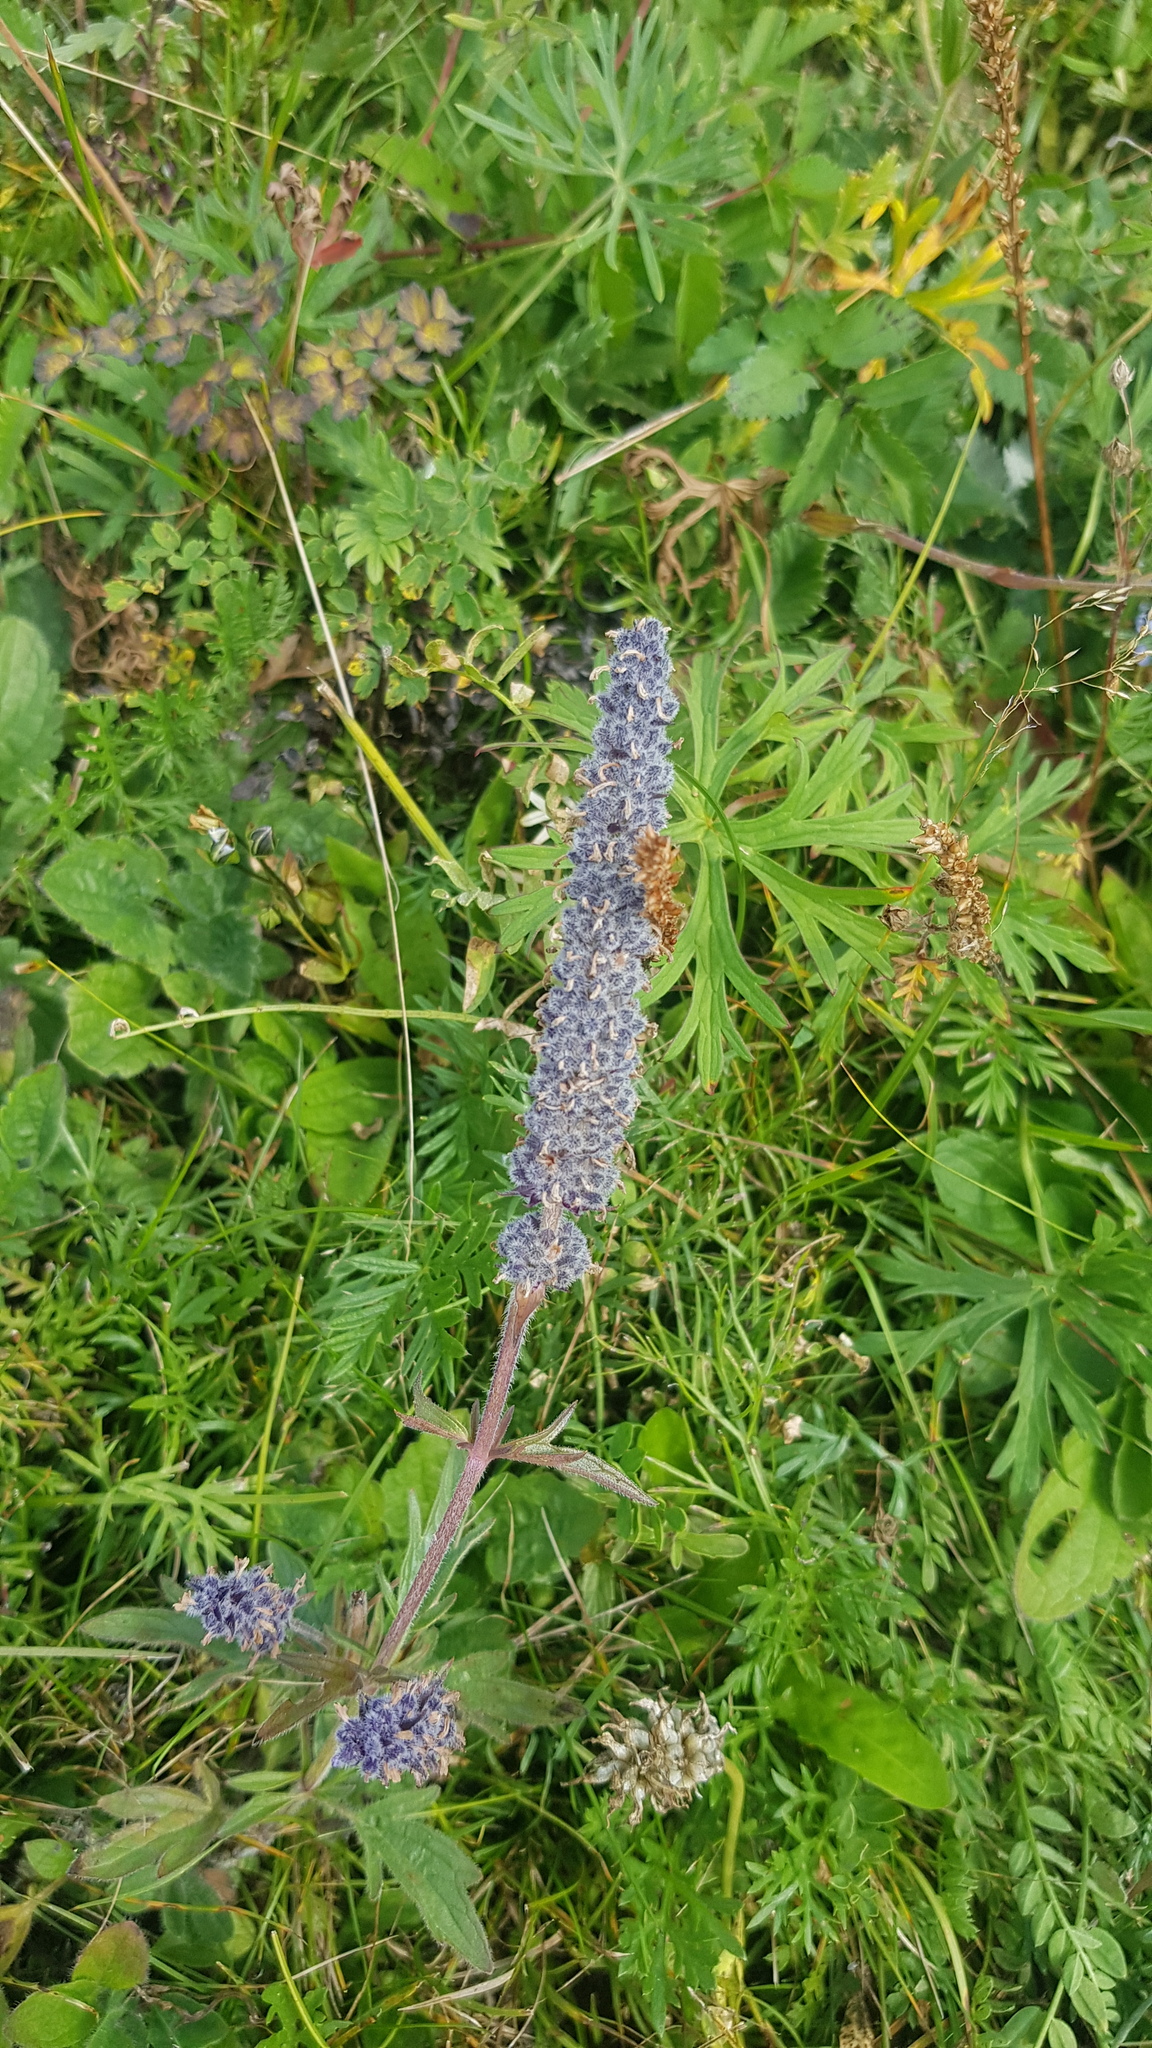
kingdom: Plantae
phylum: Tracheophyta
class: Magnoliopsida
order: Lamiales
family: Lamiaceae
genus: Nepeta
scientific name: Nepeta multifida
